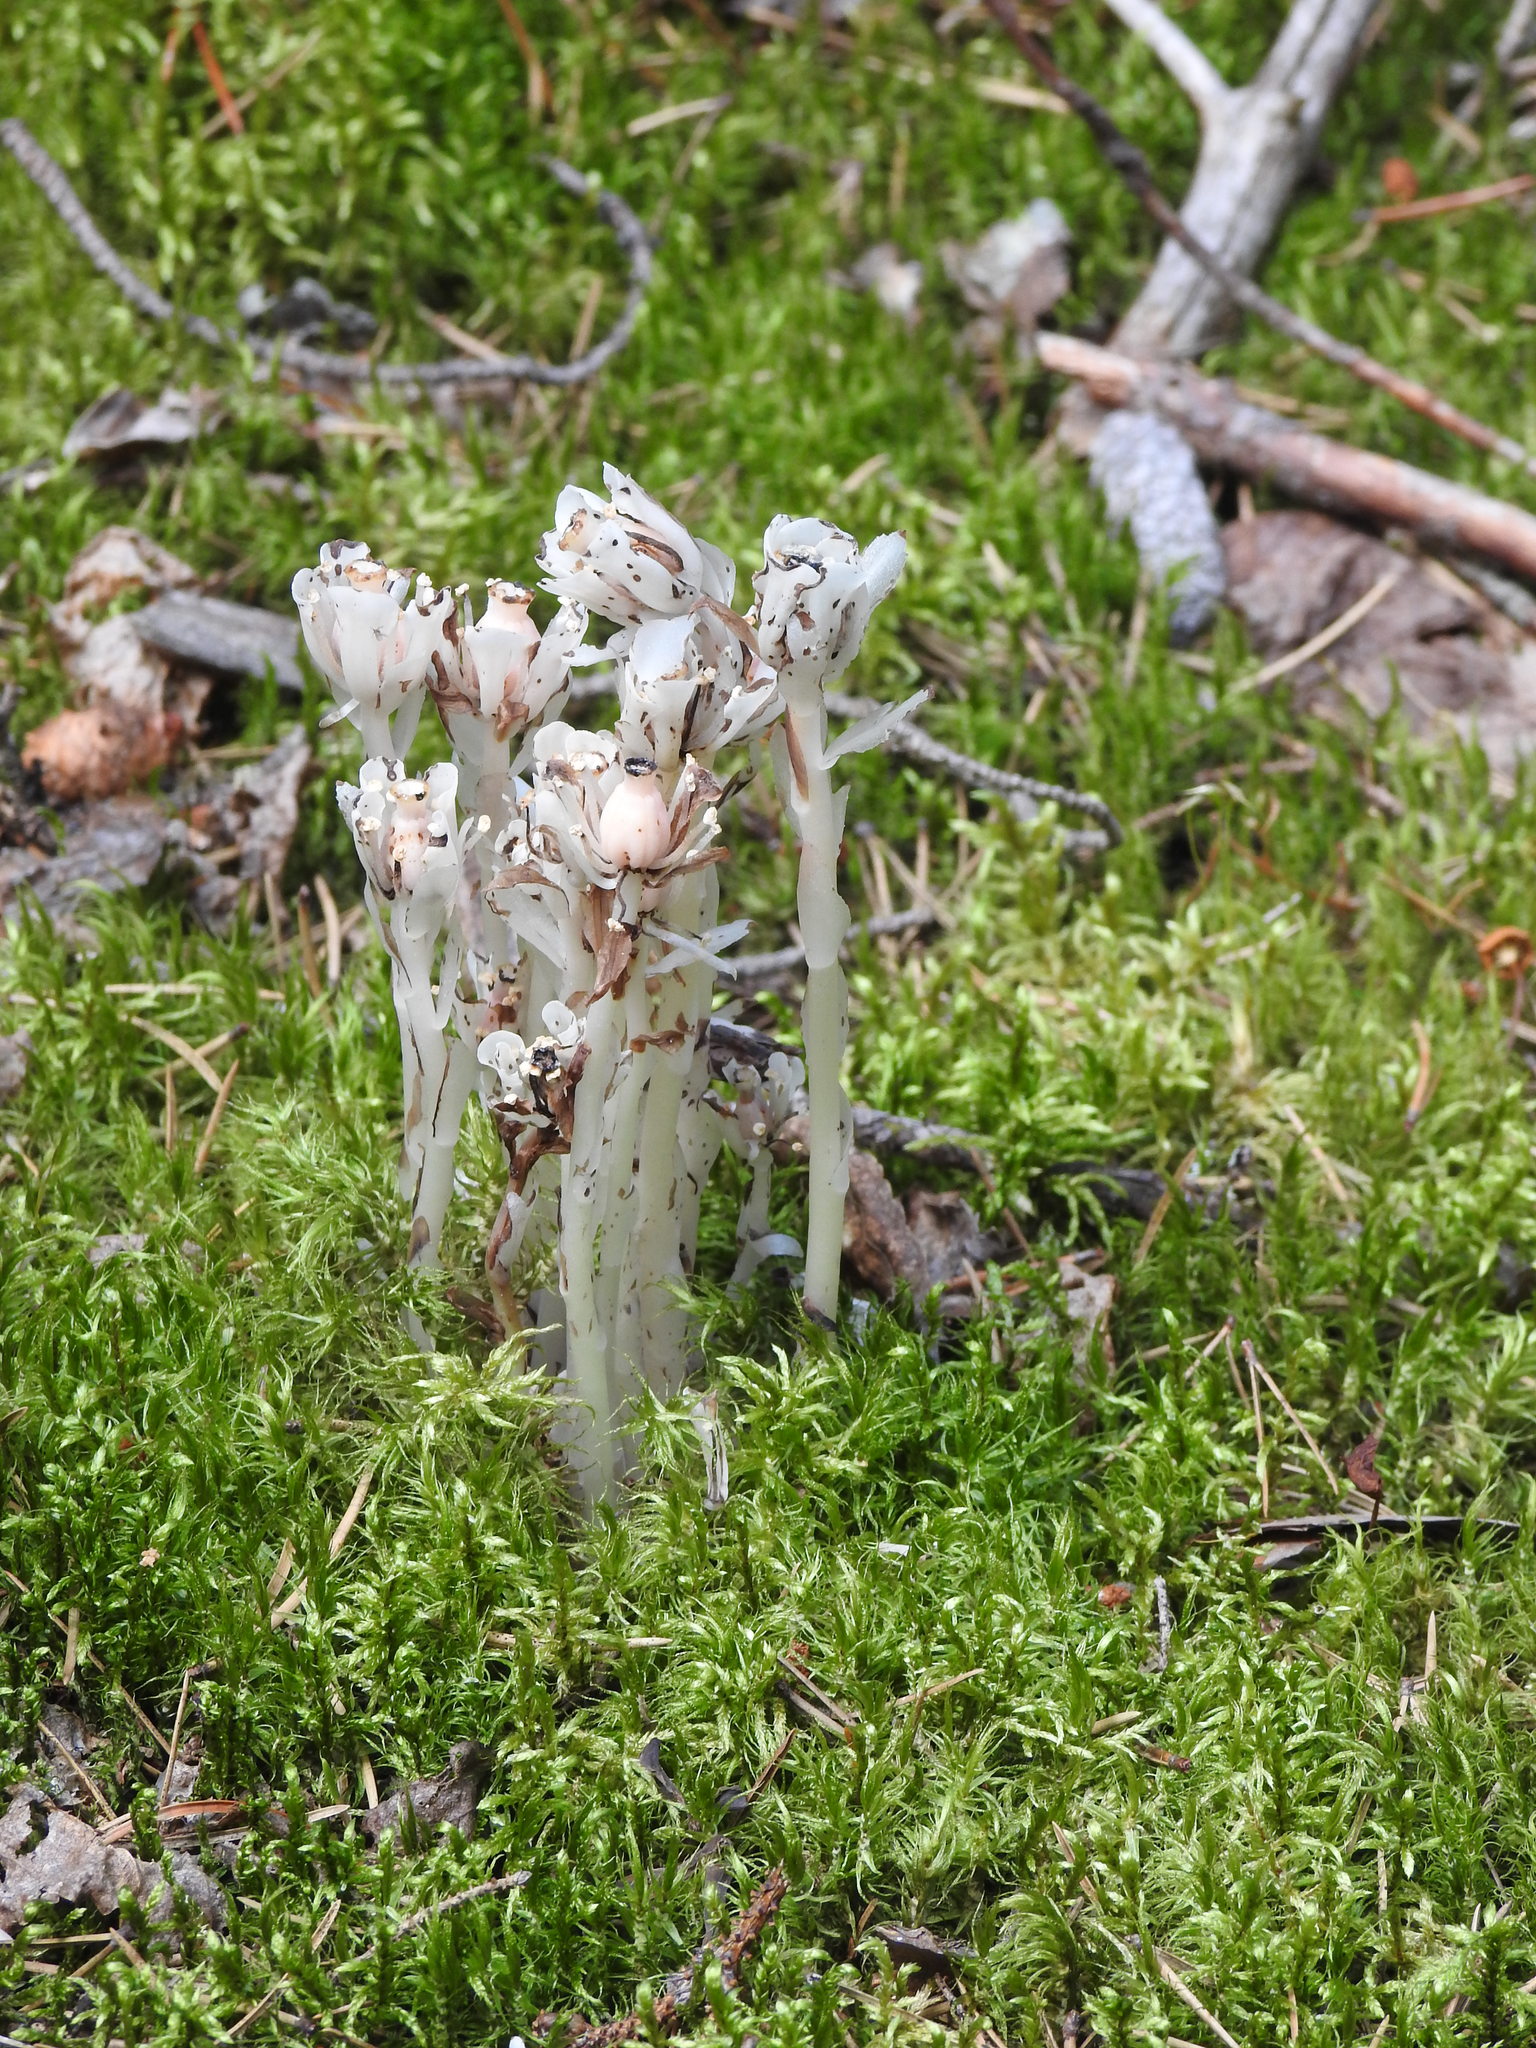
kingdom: Plantae
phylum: Tracheophyta
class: Magnoliopsida
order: Ericales
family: Ericaceae
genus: Monotropa
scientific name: Monotropa uniflora
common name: Convulsion root
